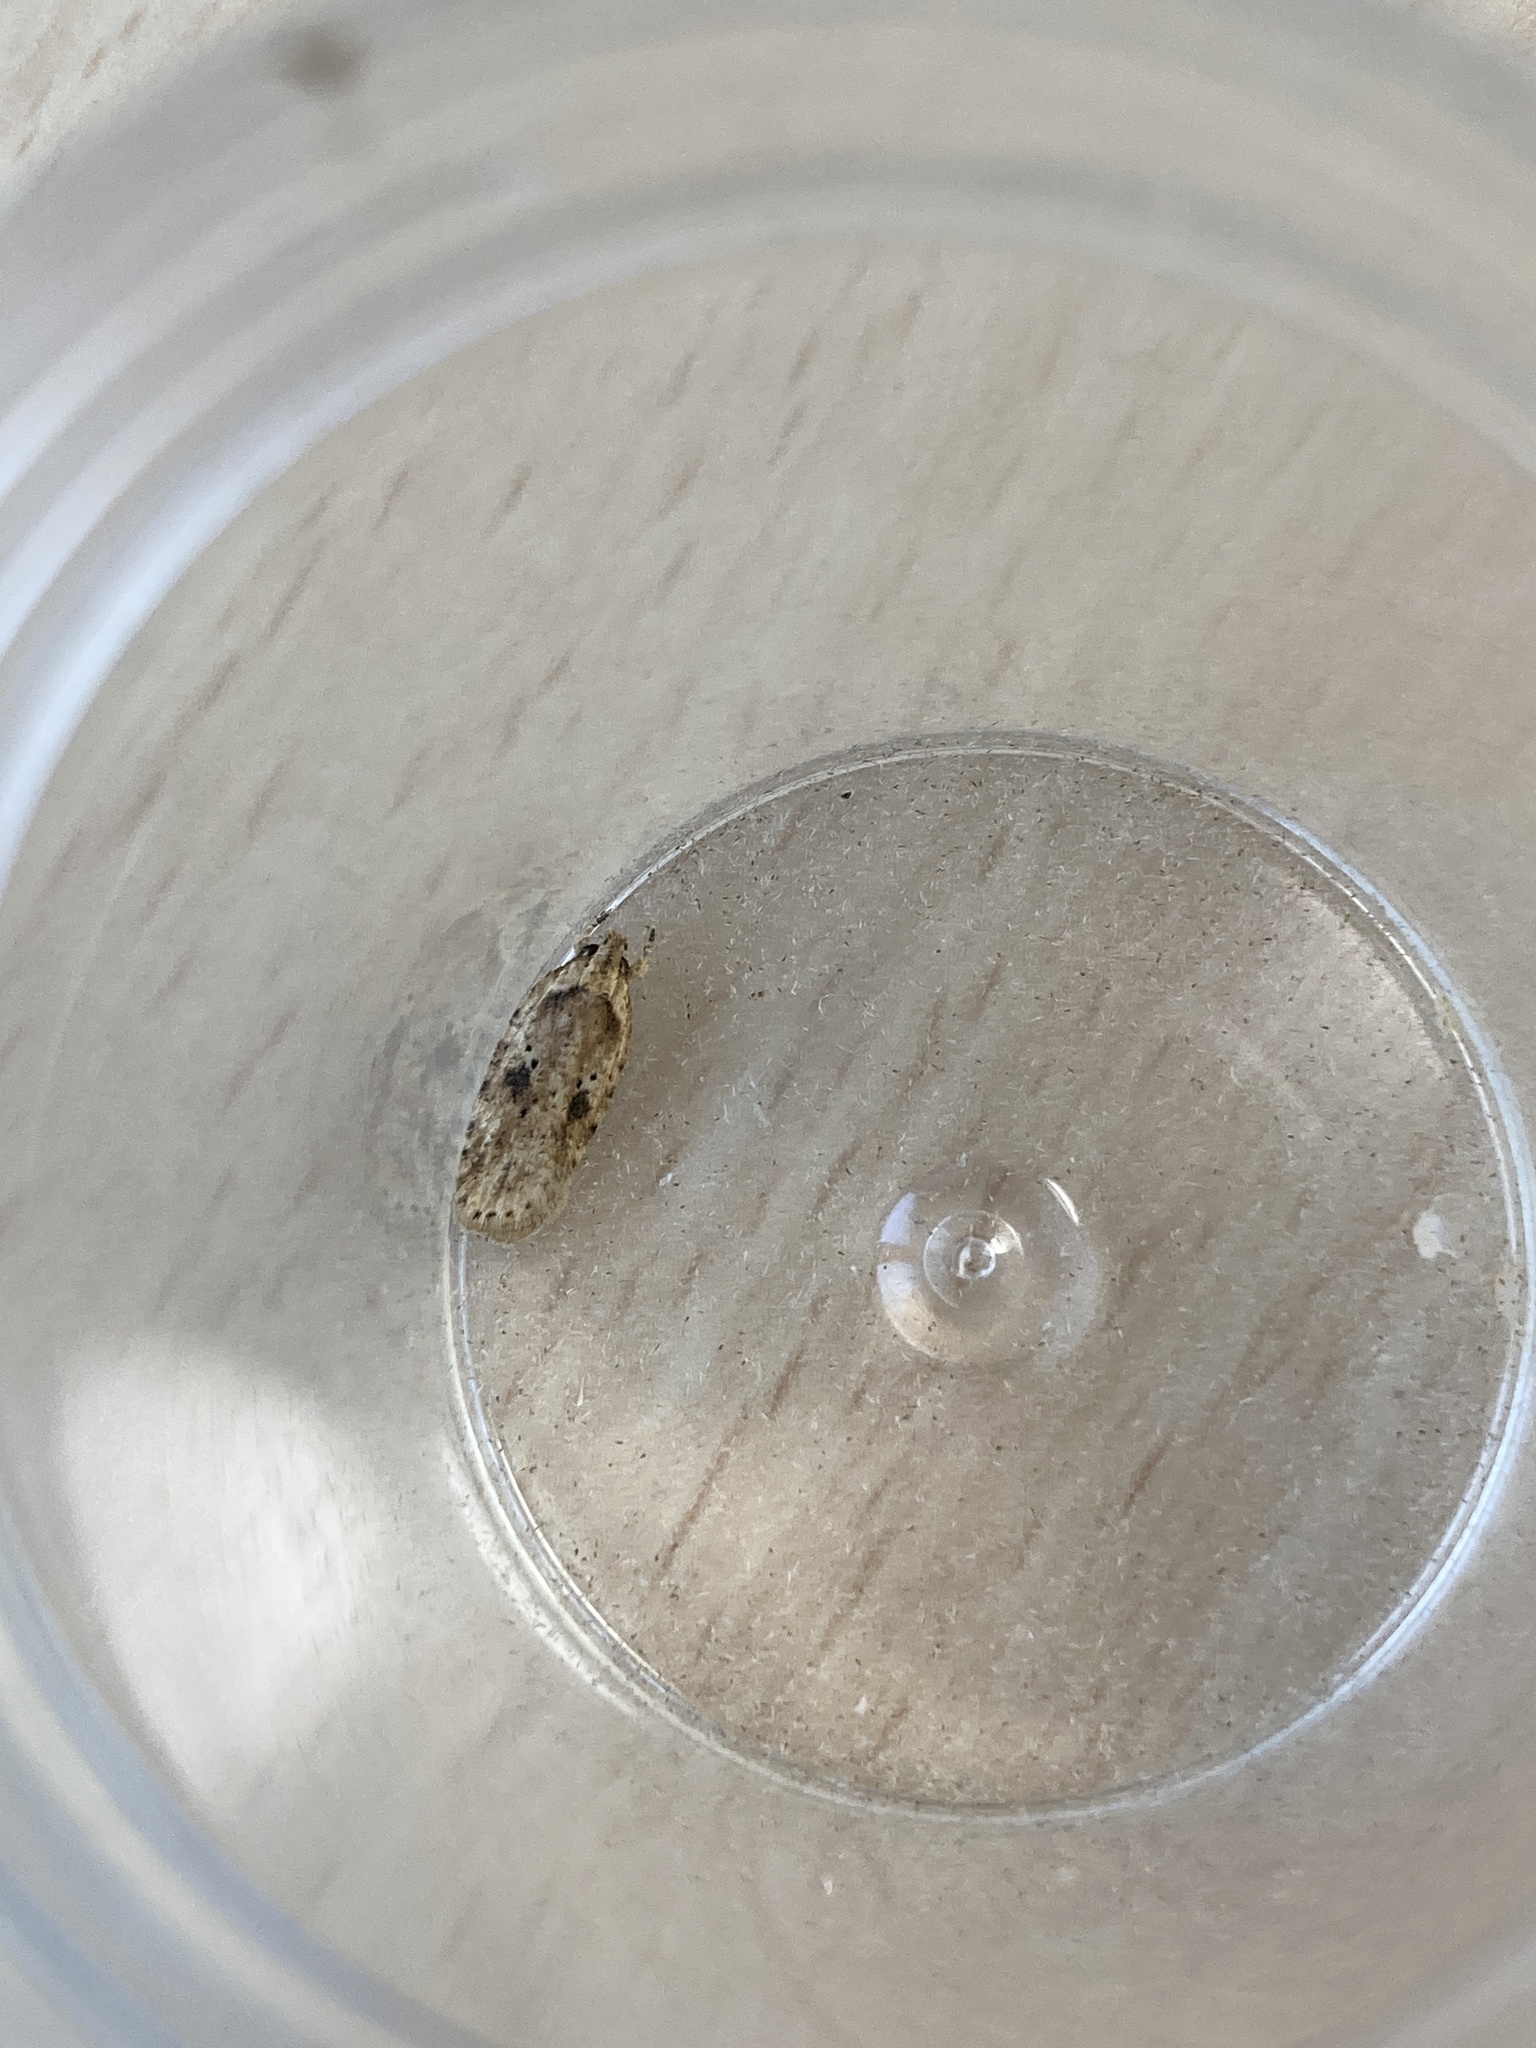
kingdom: Animalia
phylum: Arthropoda
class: Insecta
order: Lepidoptera
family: Depressariidae
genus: Agonopterix
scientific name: Agonopterix arenella
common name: Brindled flat-body
